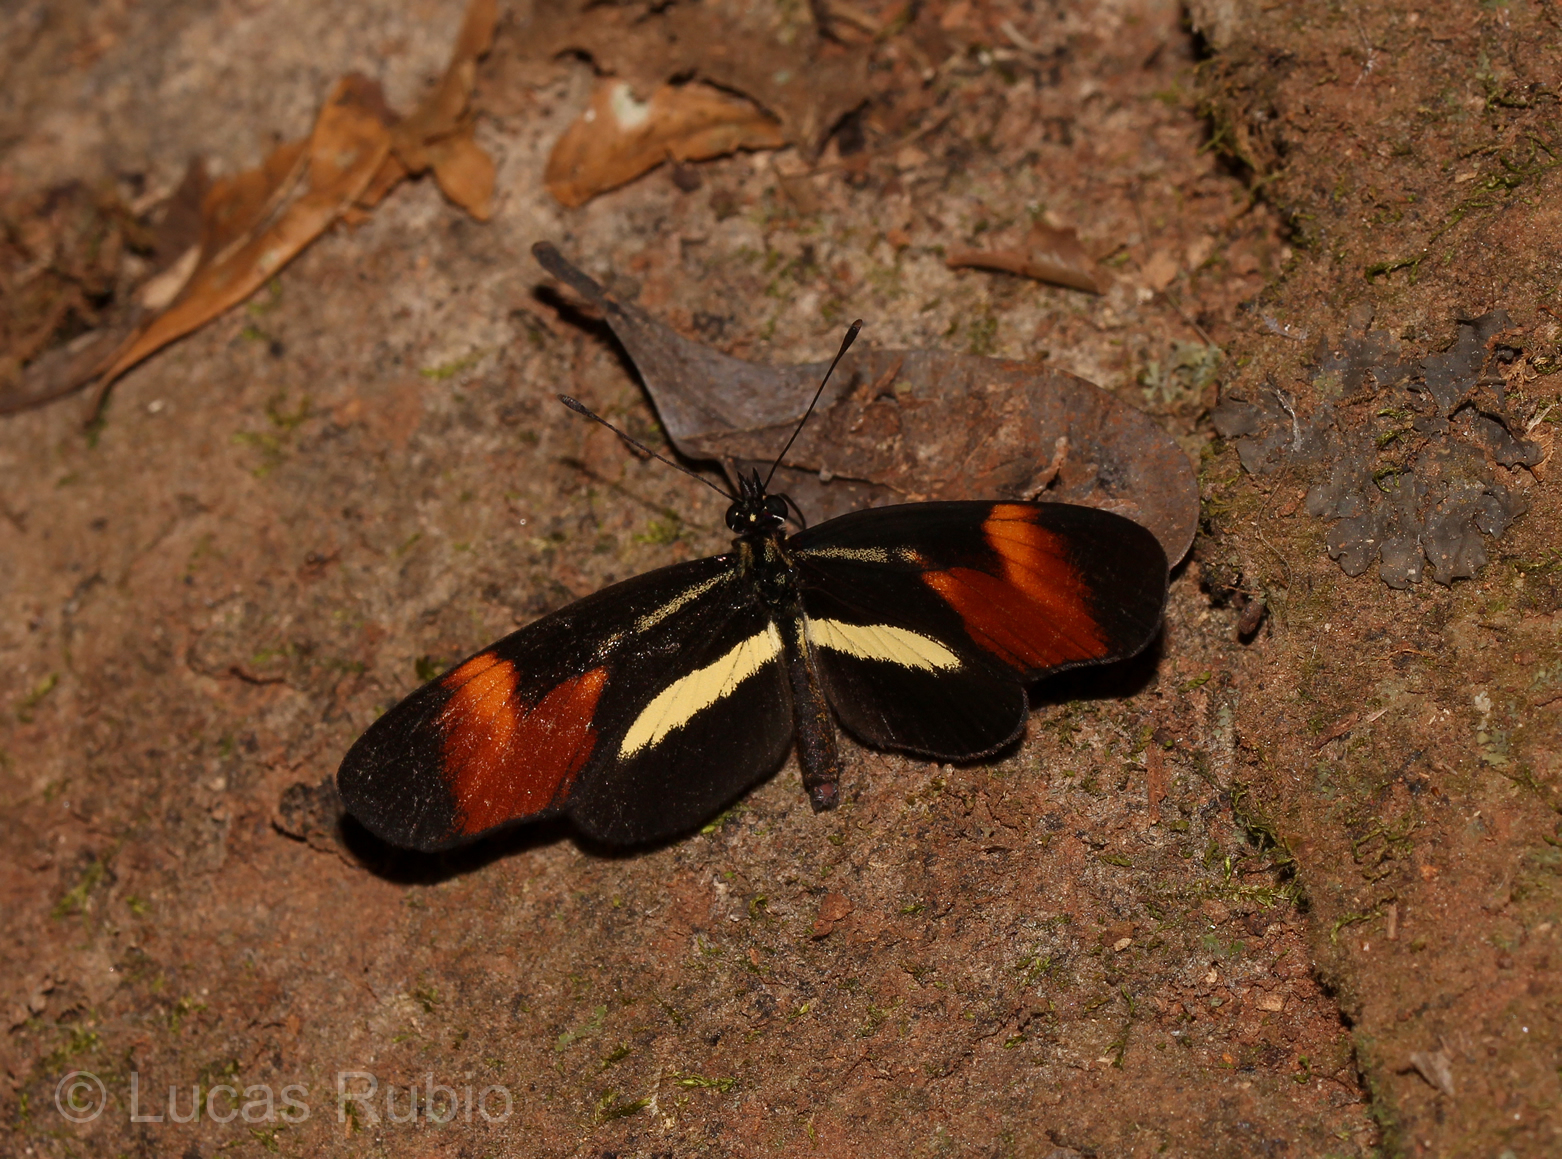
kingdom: Animalia
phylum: Arthropoda
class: Insecta
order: Lepidoptera
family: Nymphalidae
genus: Eresia
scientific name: Eresia lansdorfi
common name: Lansdorf's crescent
